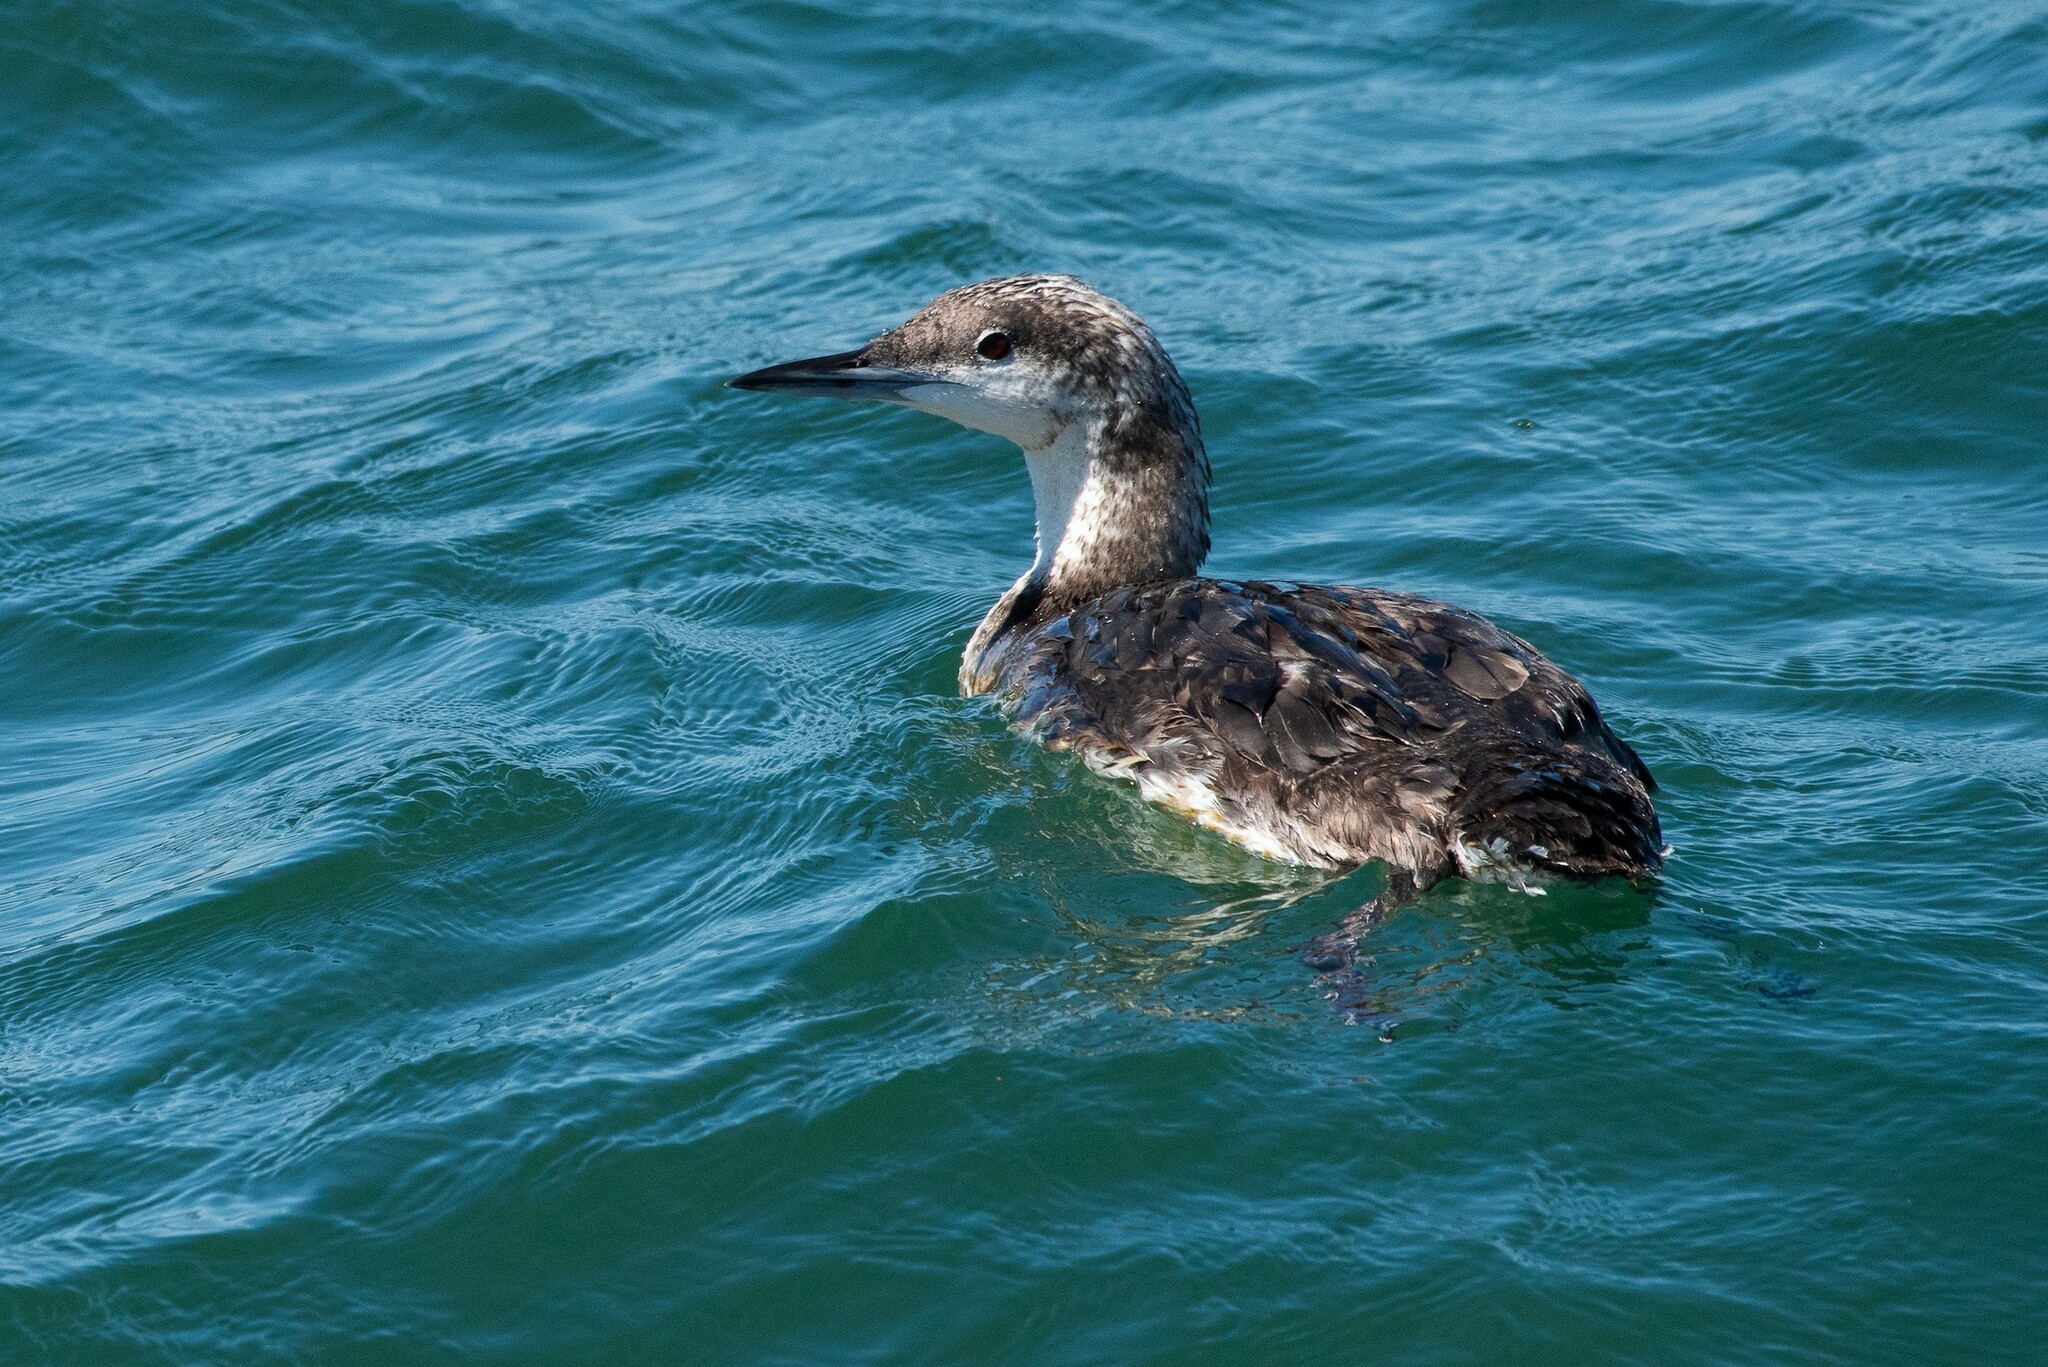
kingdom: Animalia
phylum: Chordata
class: Aves
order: Gaviiformes
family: Gaviidae
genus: Gavia
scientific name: Gavia pacifica
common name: Pacific loon
